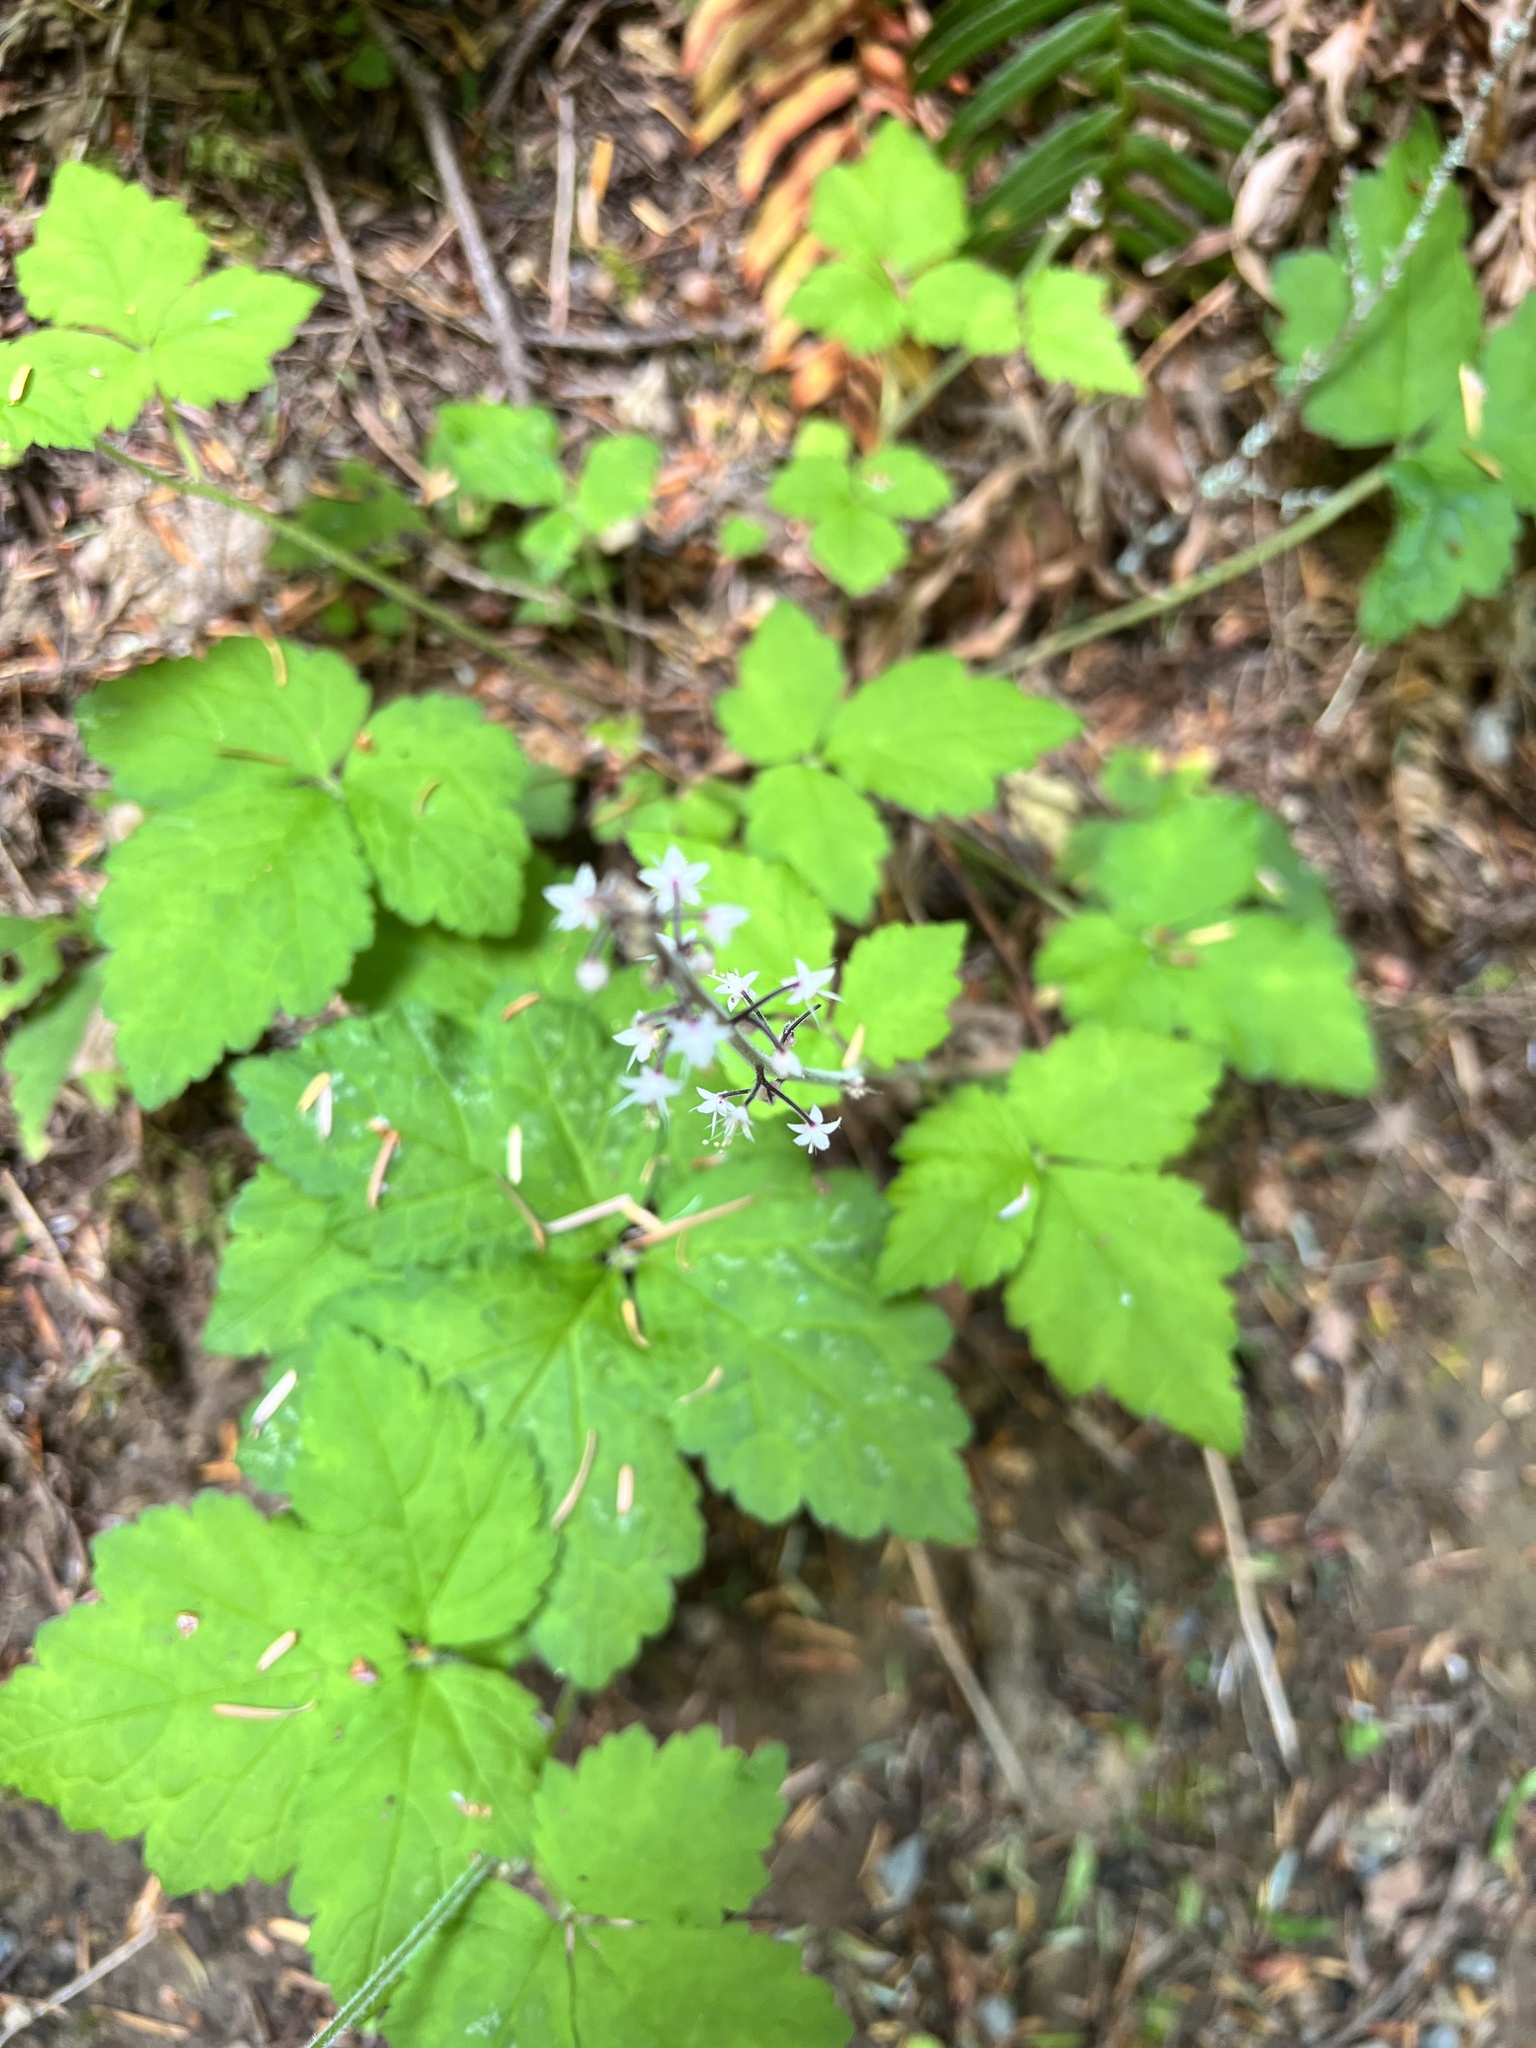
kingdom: Plantae
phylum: Tracheophyta
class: Magnoliopsida
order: Saxifragales
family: Saxifragaceae
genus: Tiarella
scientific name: Tiarella trifoliata
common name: Sugar-scoop
